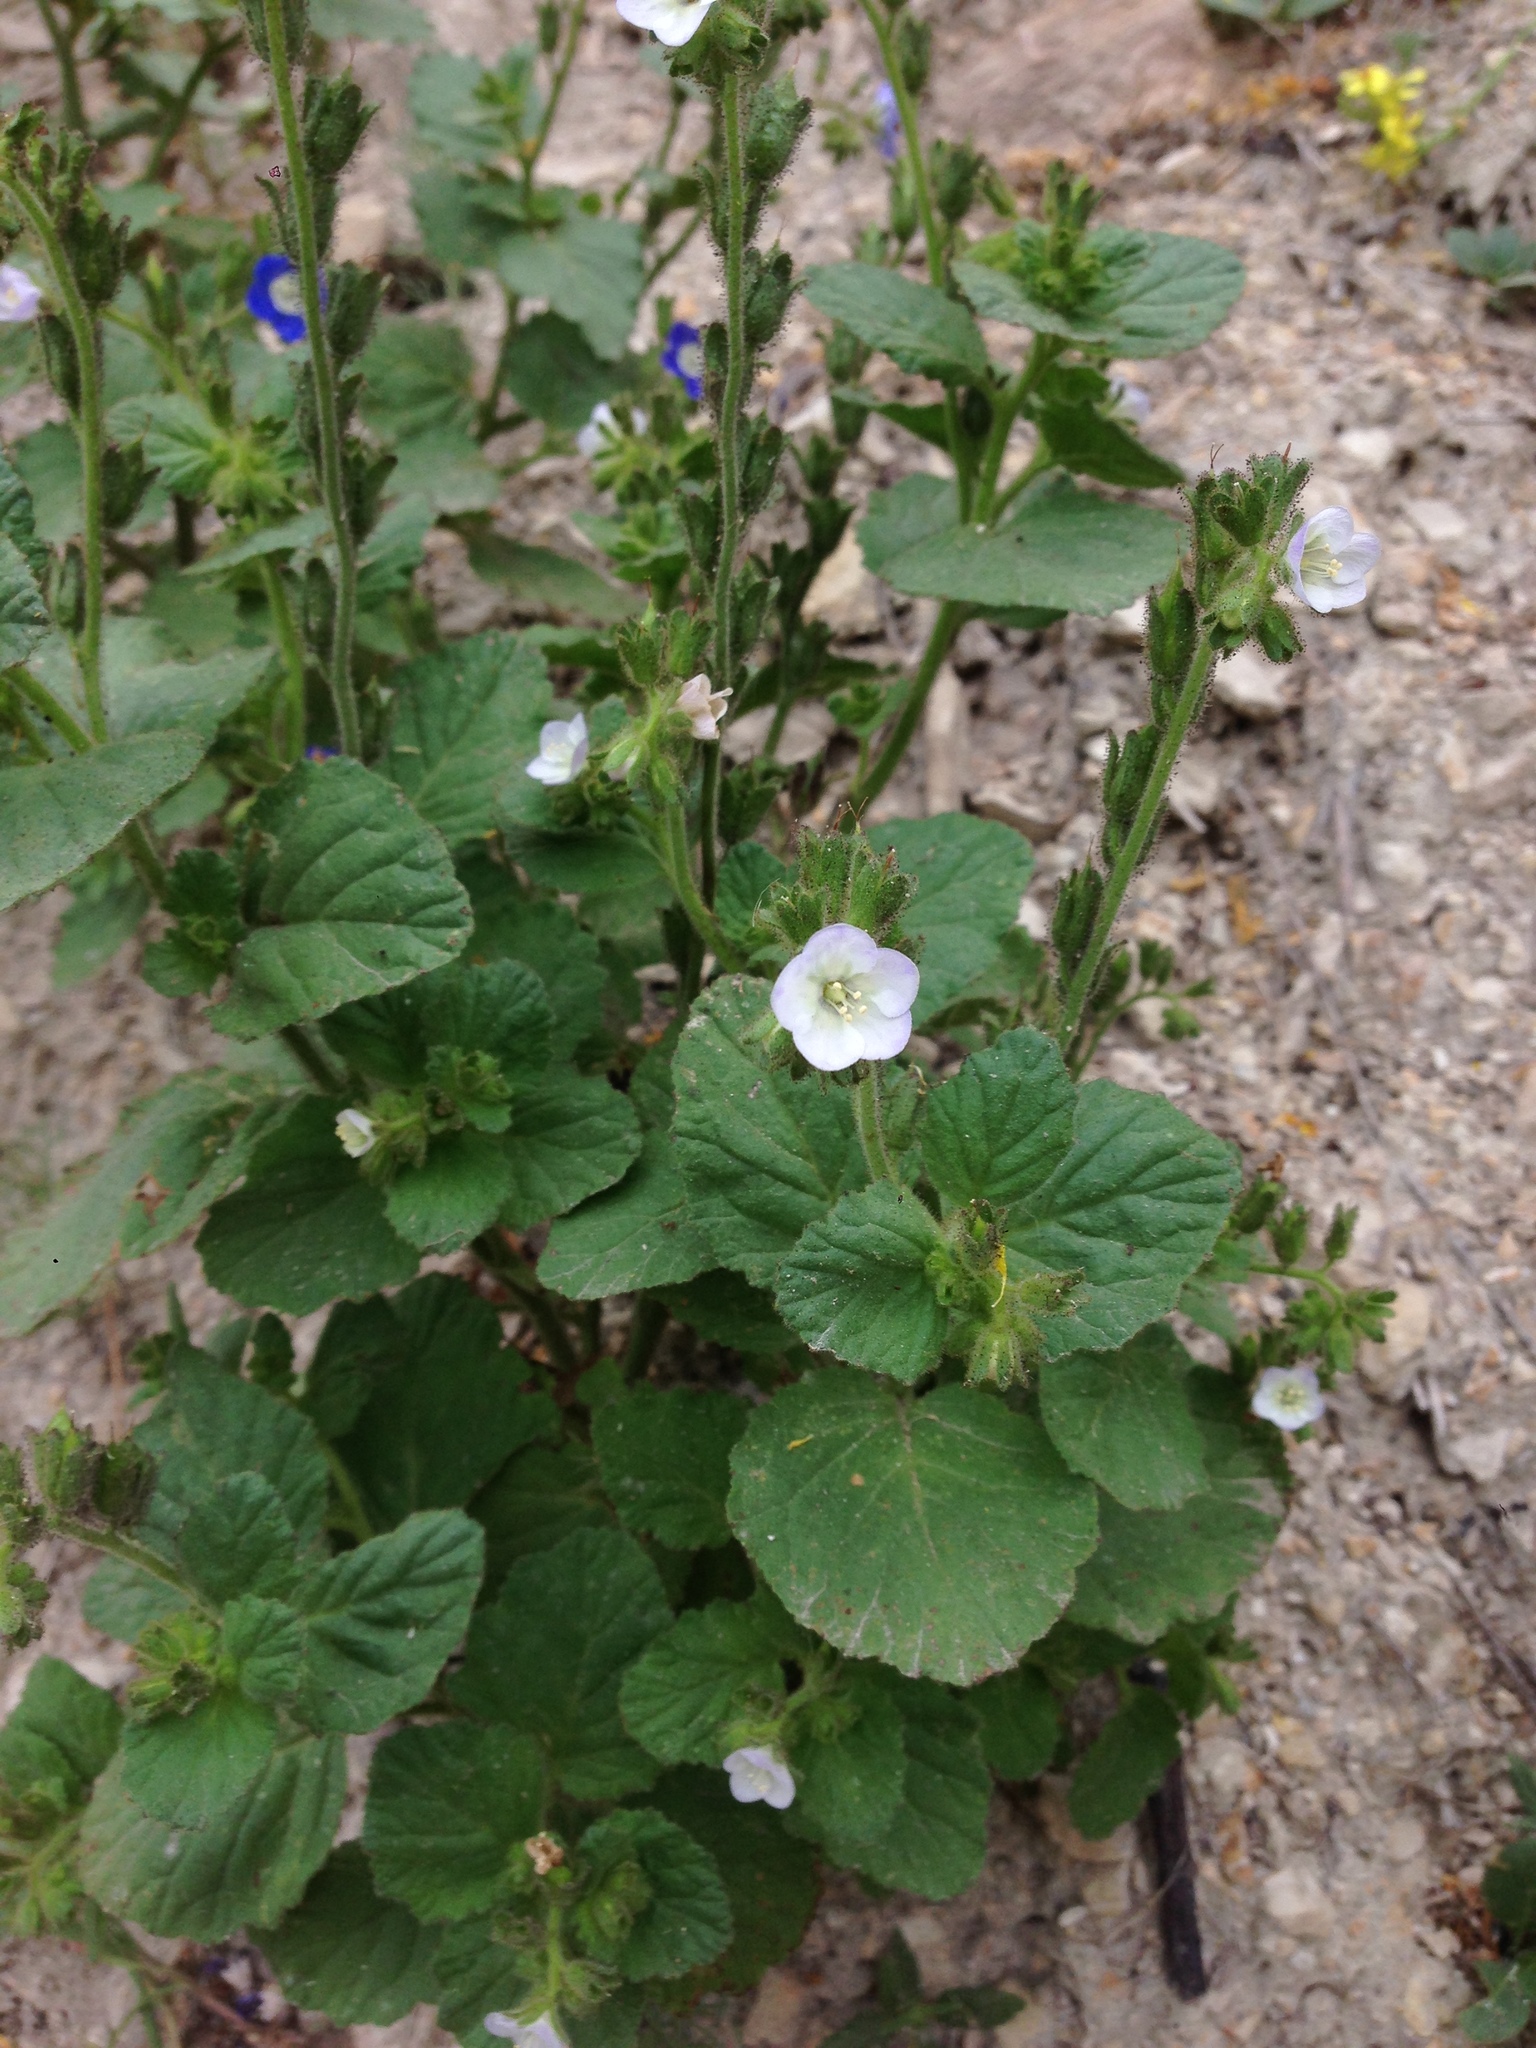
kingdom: Plantae
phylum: Tracheophyta
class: Magnoliopsida
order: Boraginales
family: Hydrophyllaceae
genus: Phacelia
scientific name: Phacelia viscida
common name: Sticky phacelia
